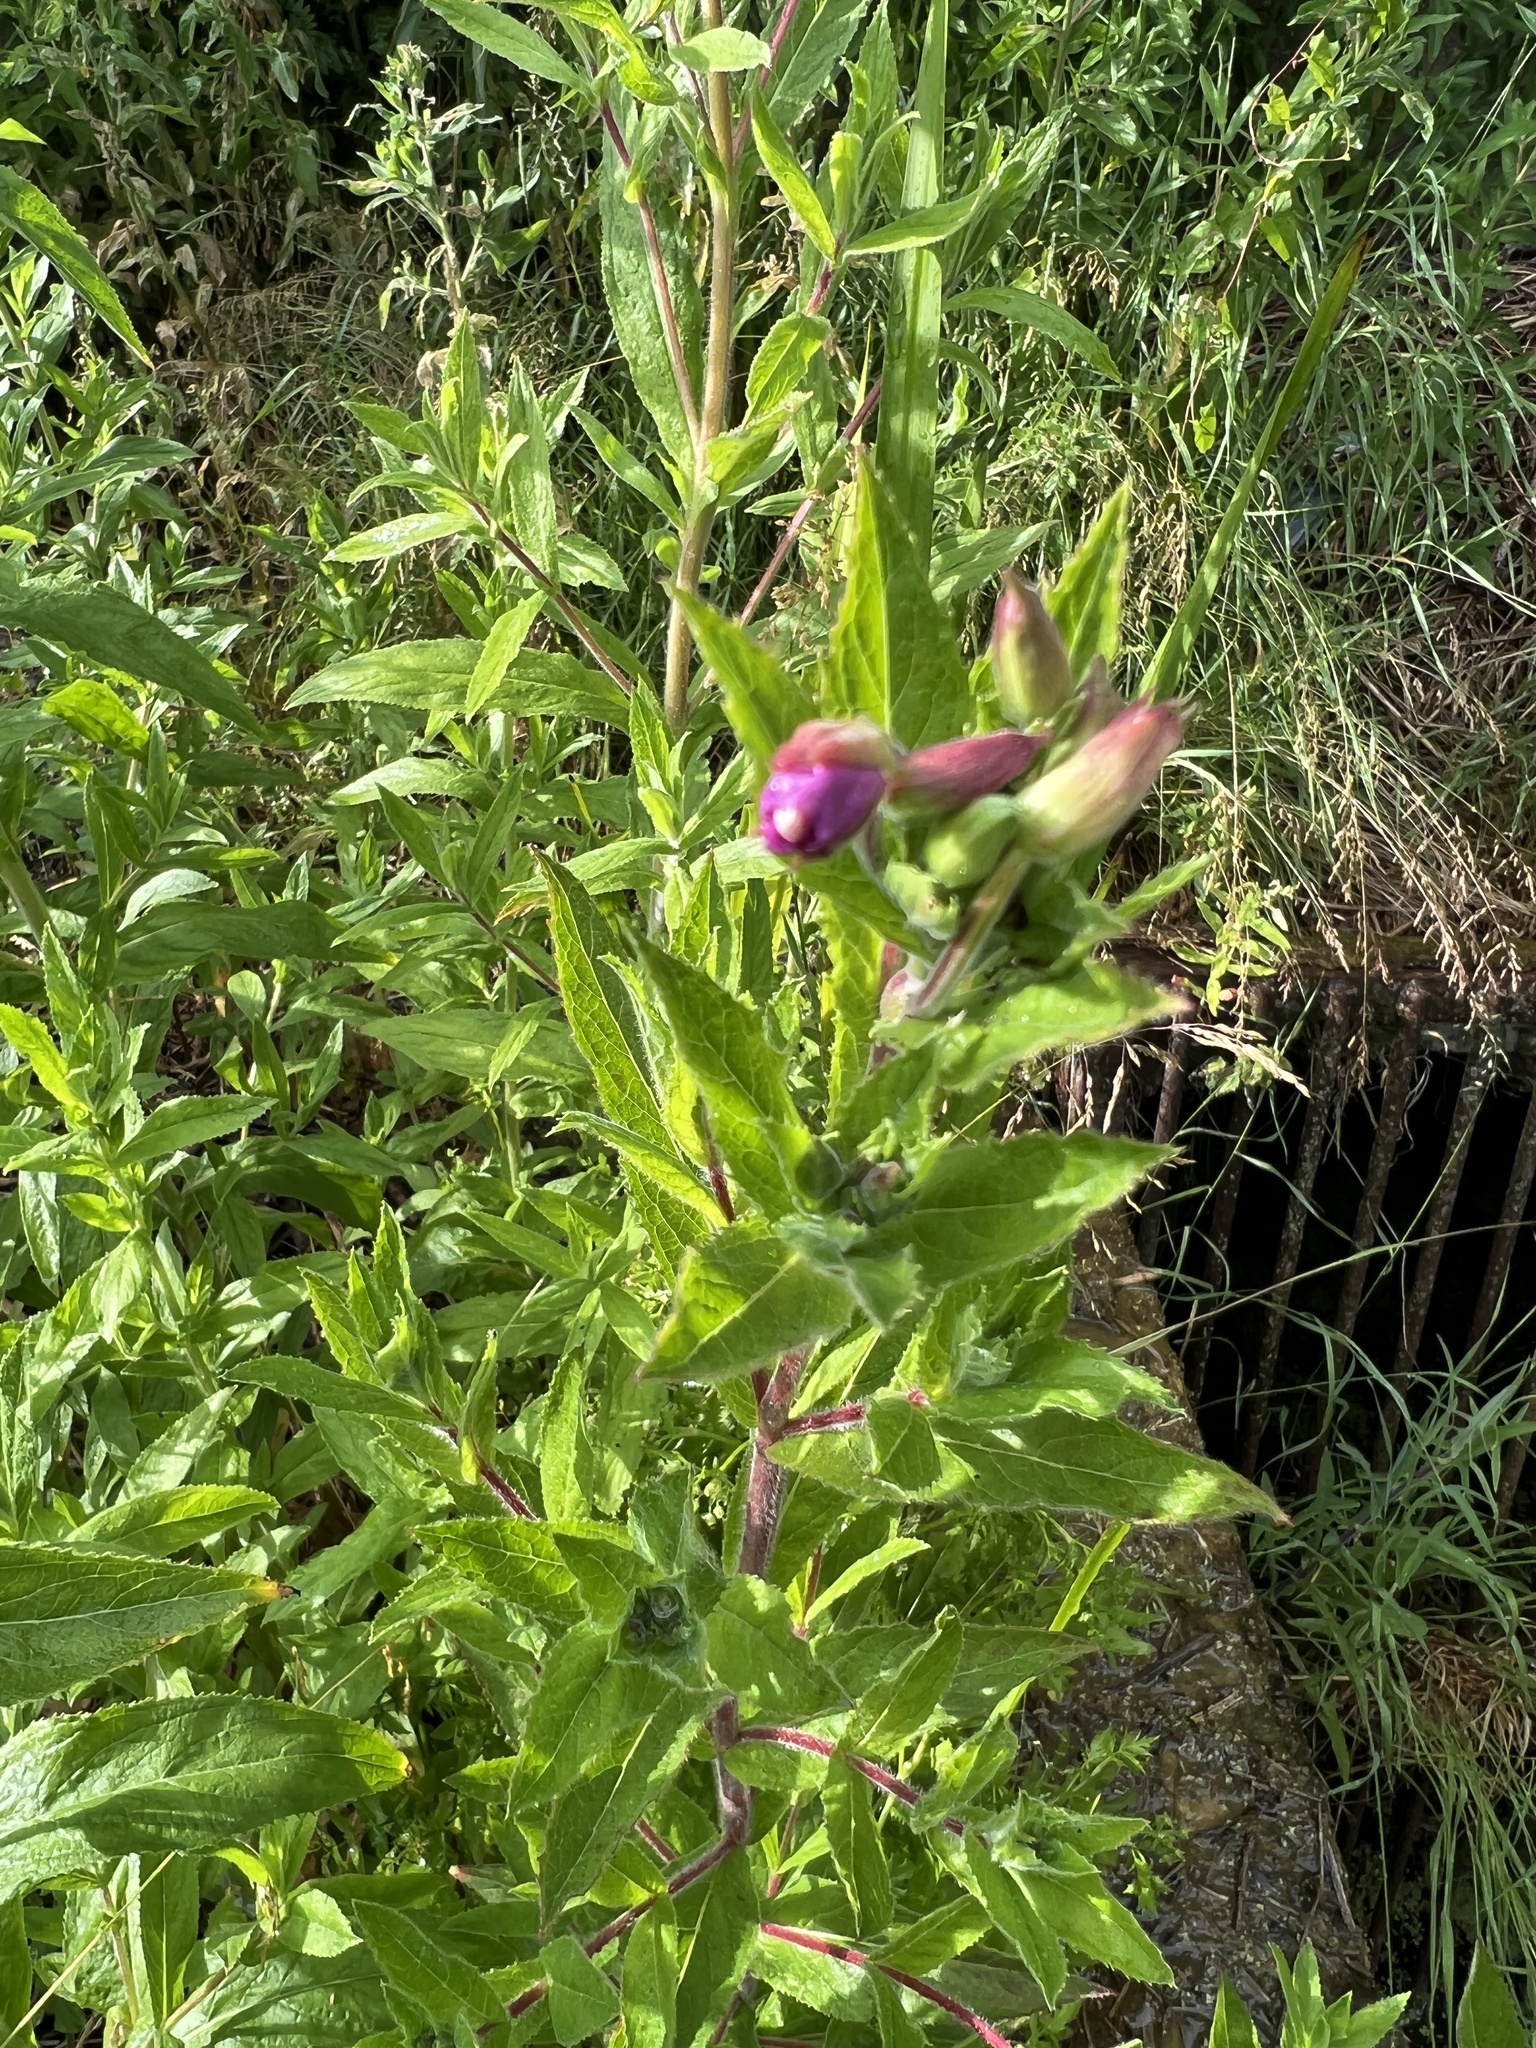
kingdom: Plantae
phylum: Tracheophyta
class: Magnoliopsida
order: Myrtales
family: Onagraceae
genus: Epilobium
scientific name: Epilobium hirsutum
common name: Great willowherb
